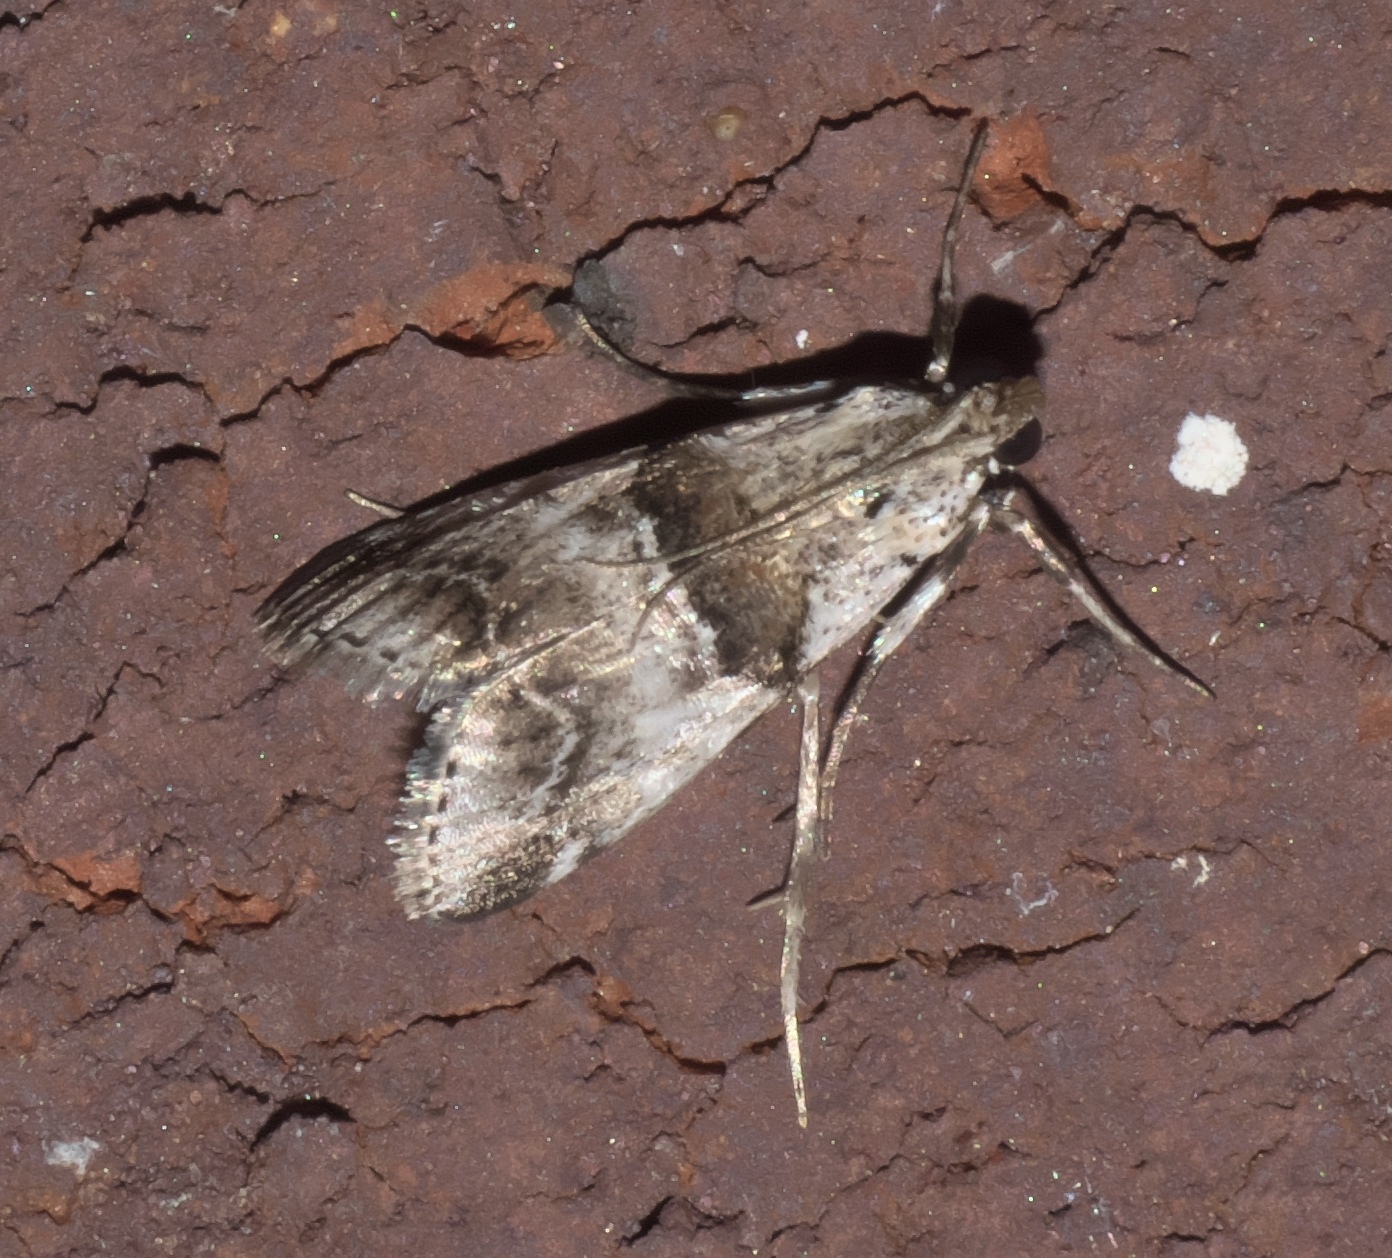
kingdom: Animalia
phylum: Arthropoda
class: Insecta
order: Lepidoptera
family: Pyralidae
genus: Tallula
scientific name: Tallula atrifascialis
